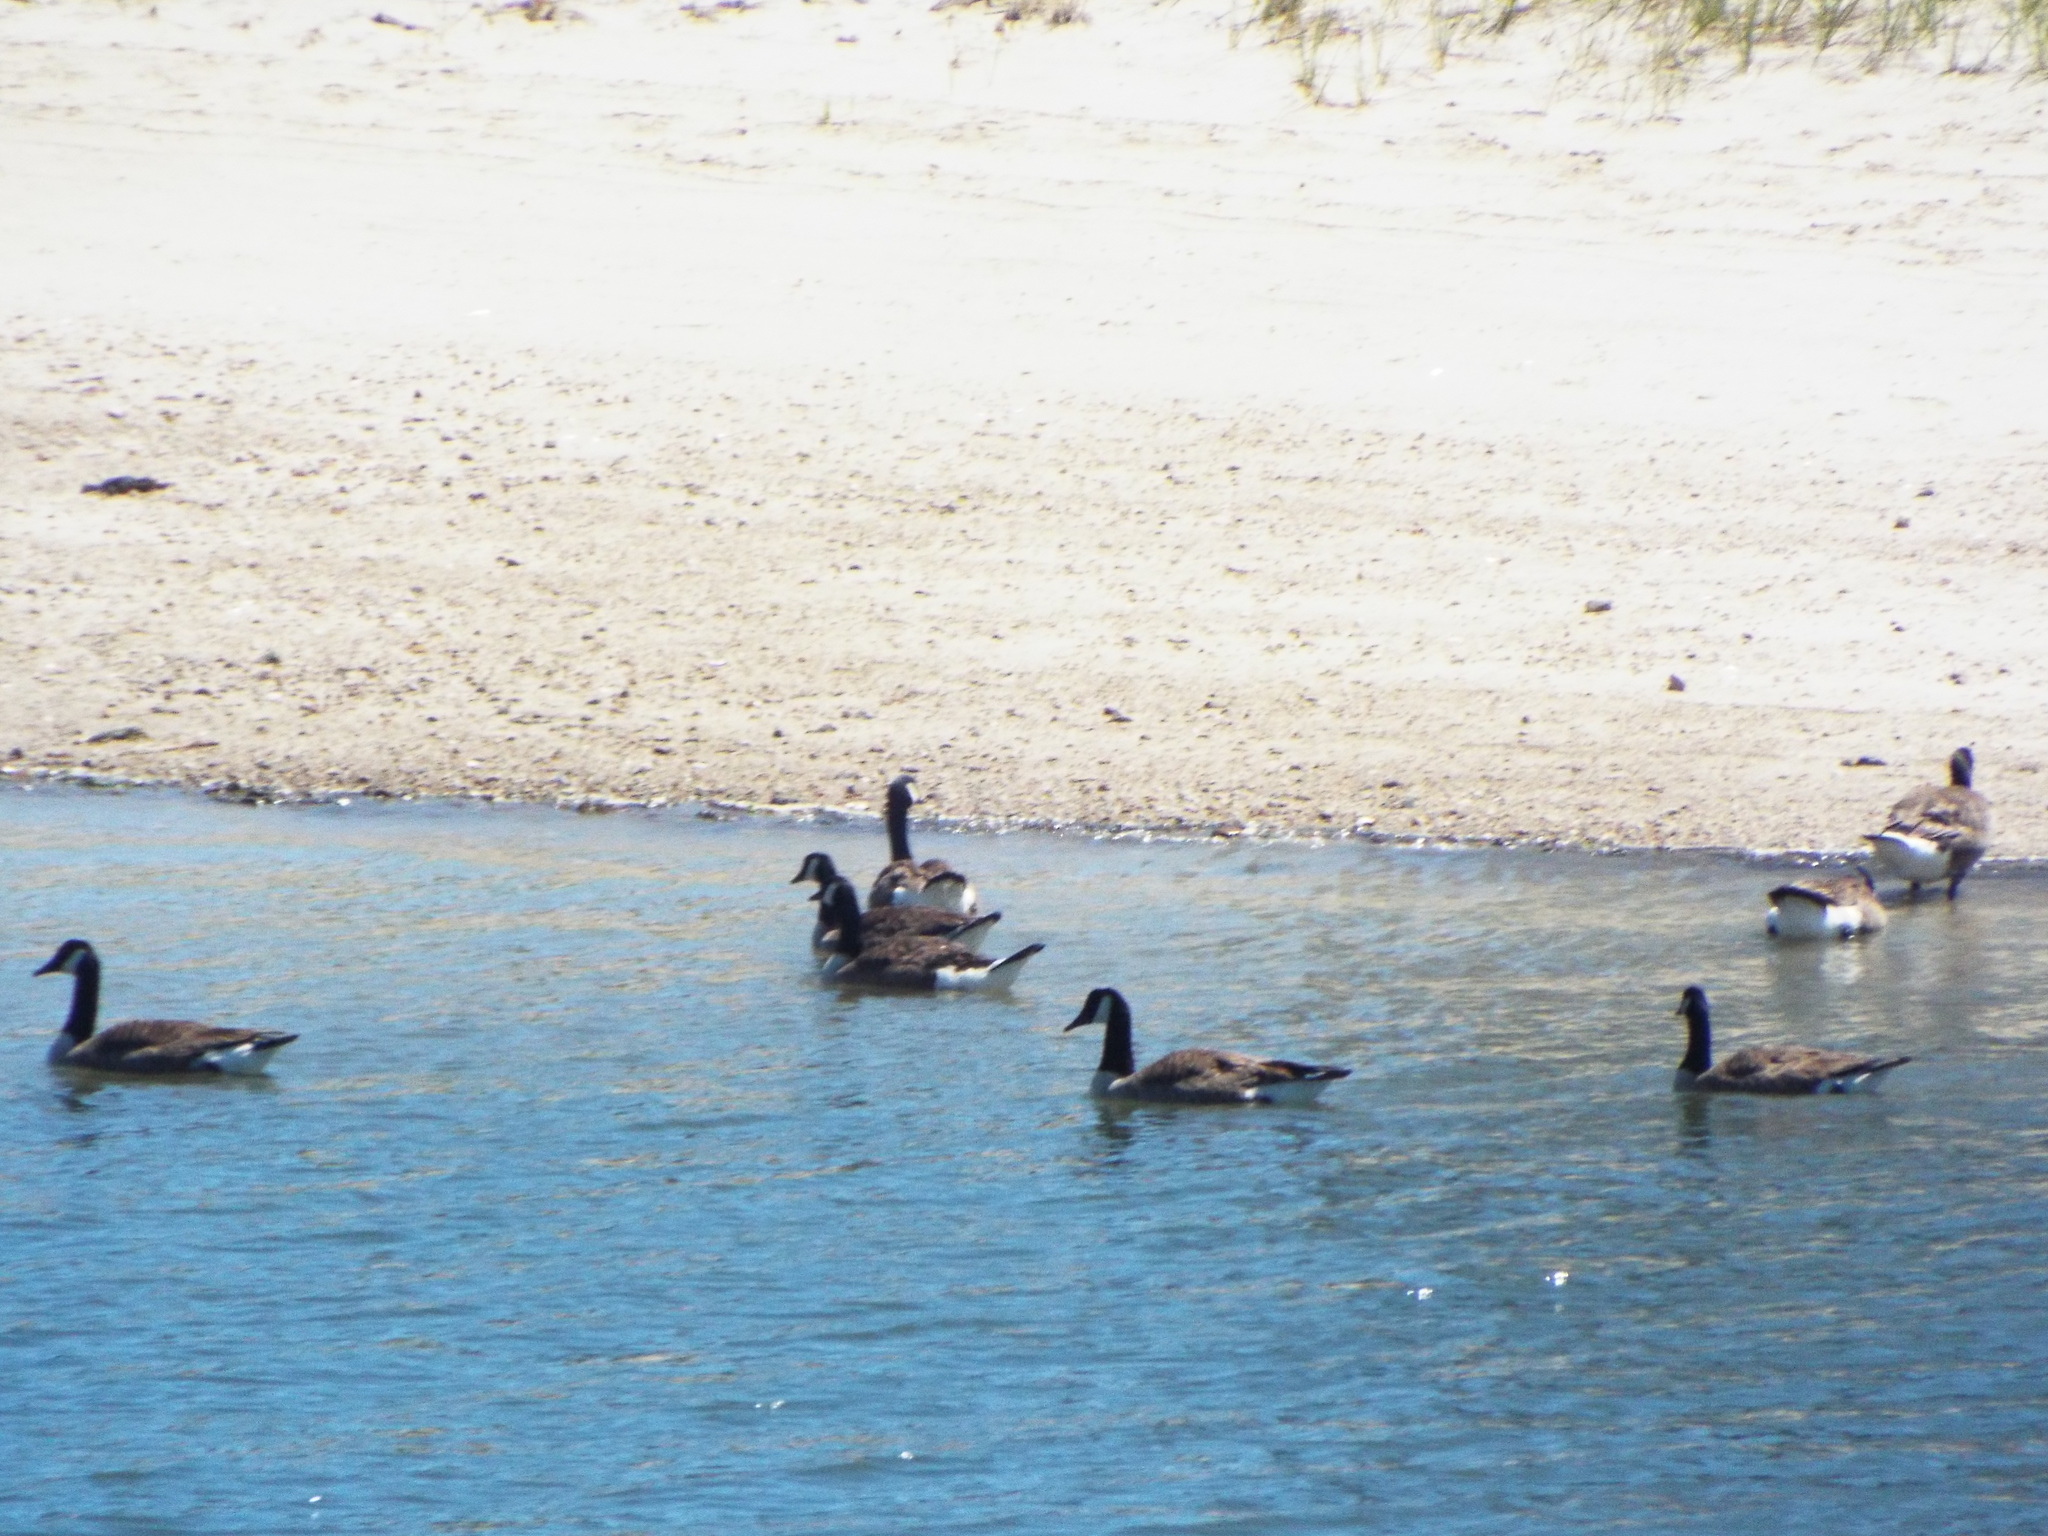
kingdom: Animalia
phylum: Chordata
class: Aves
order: Anseriformes
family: Anatidae
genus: Branta
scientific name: Branta canadensis
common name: Canada goose
